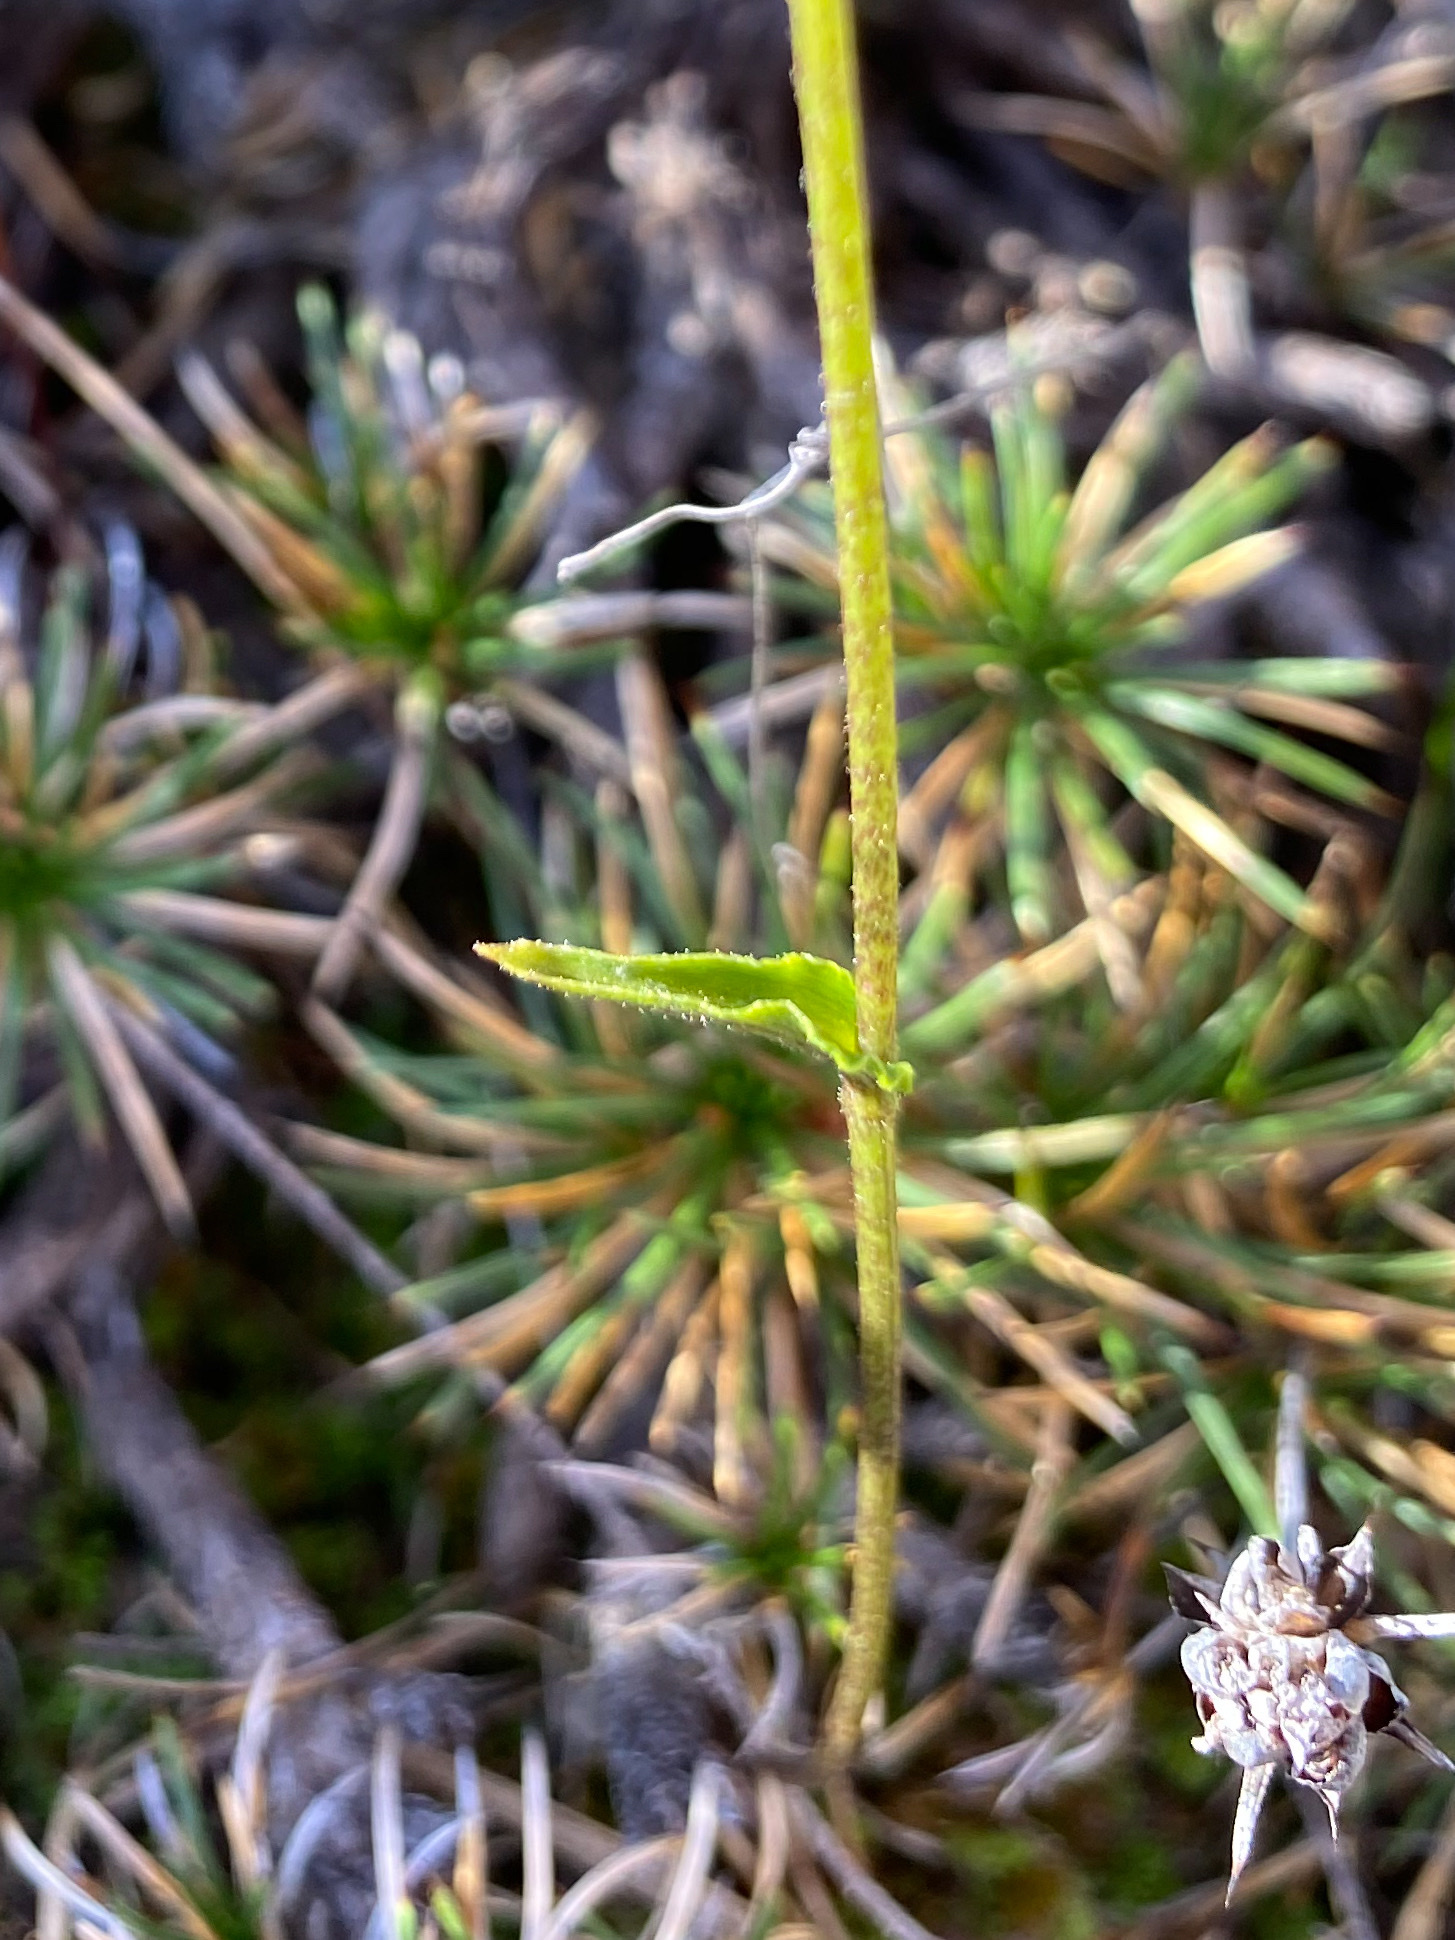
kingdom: Plantae
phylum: Tracheophyta
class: Liliopsida
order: Asparagales
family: Orchidaceae
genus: Eriochilus
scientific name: Eriochilus dilatatus
